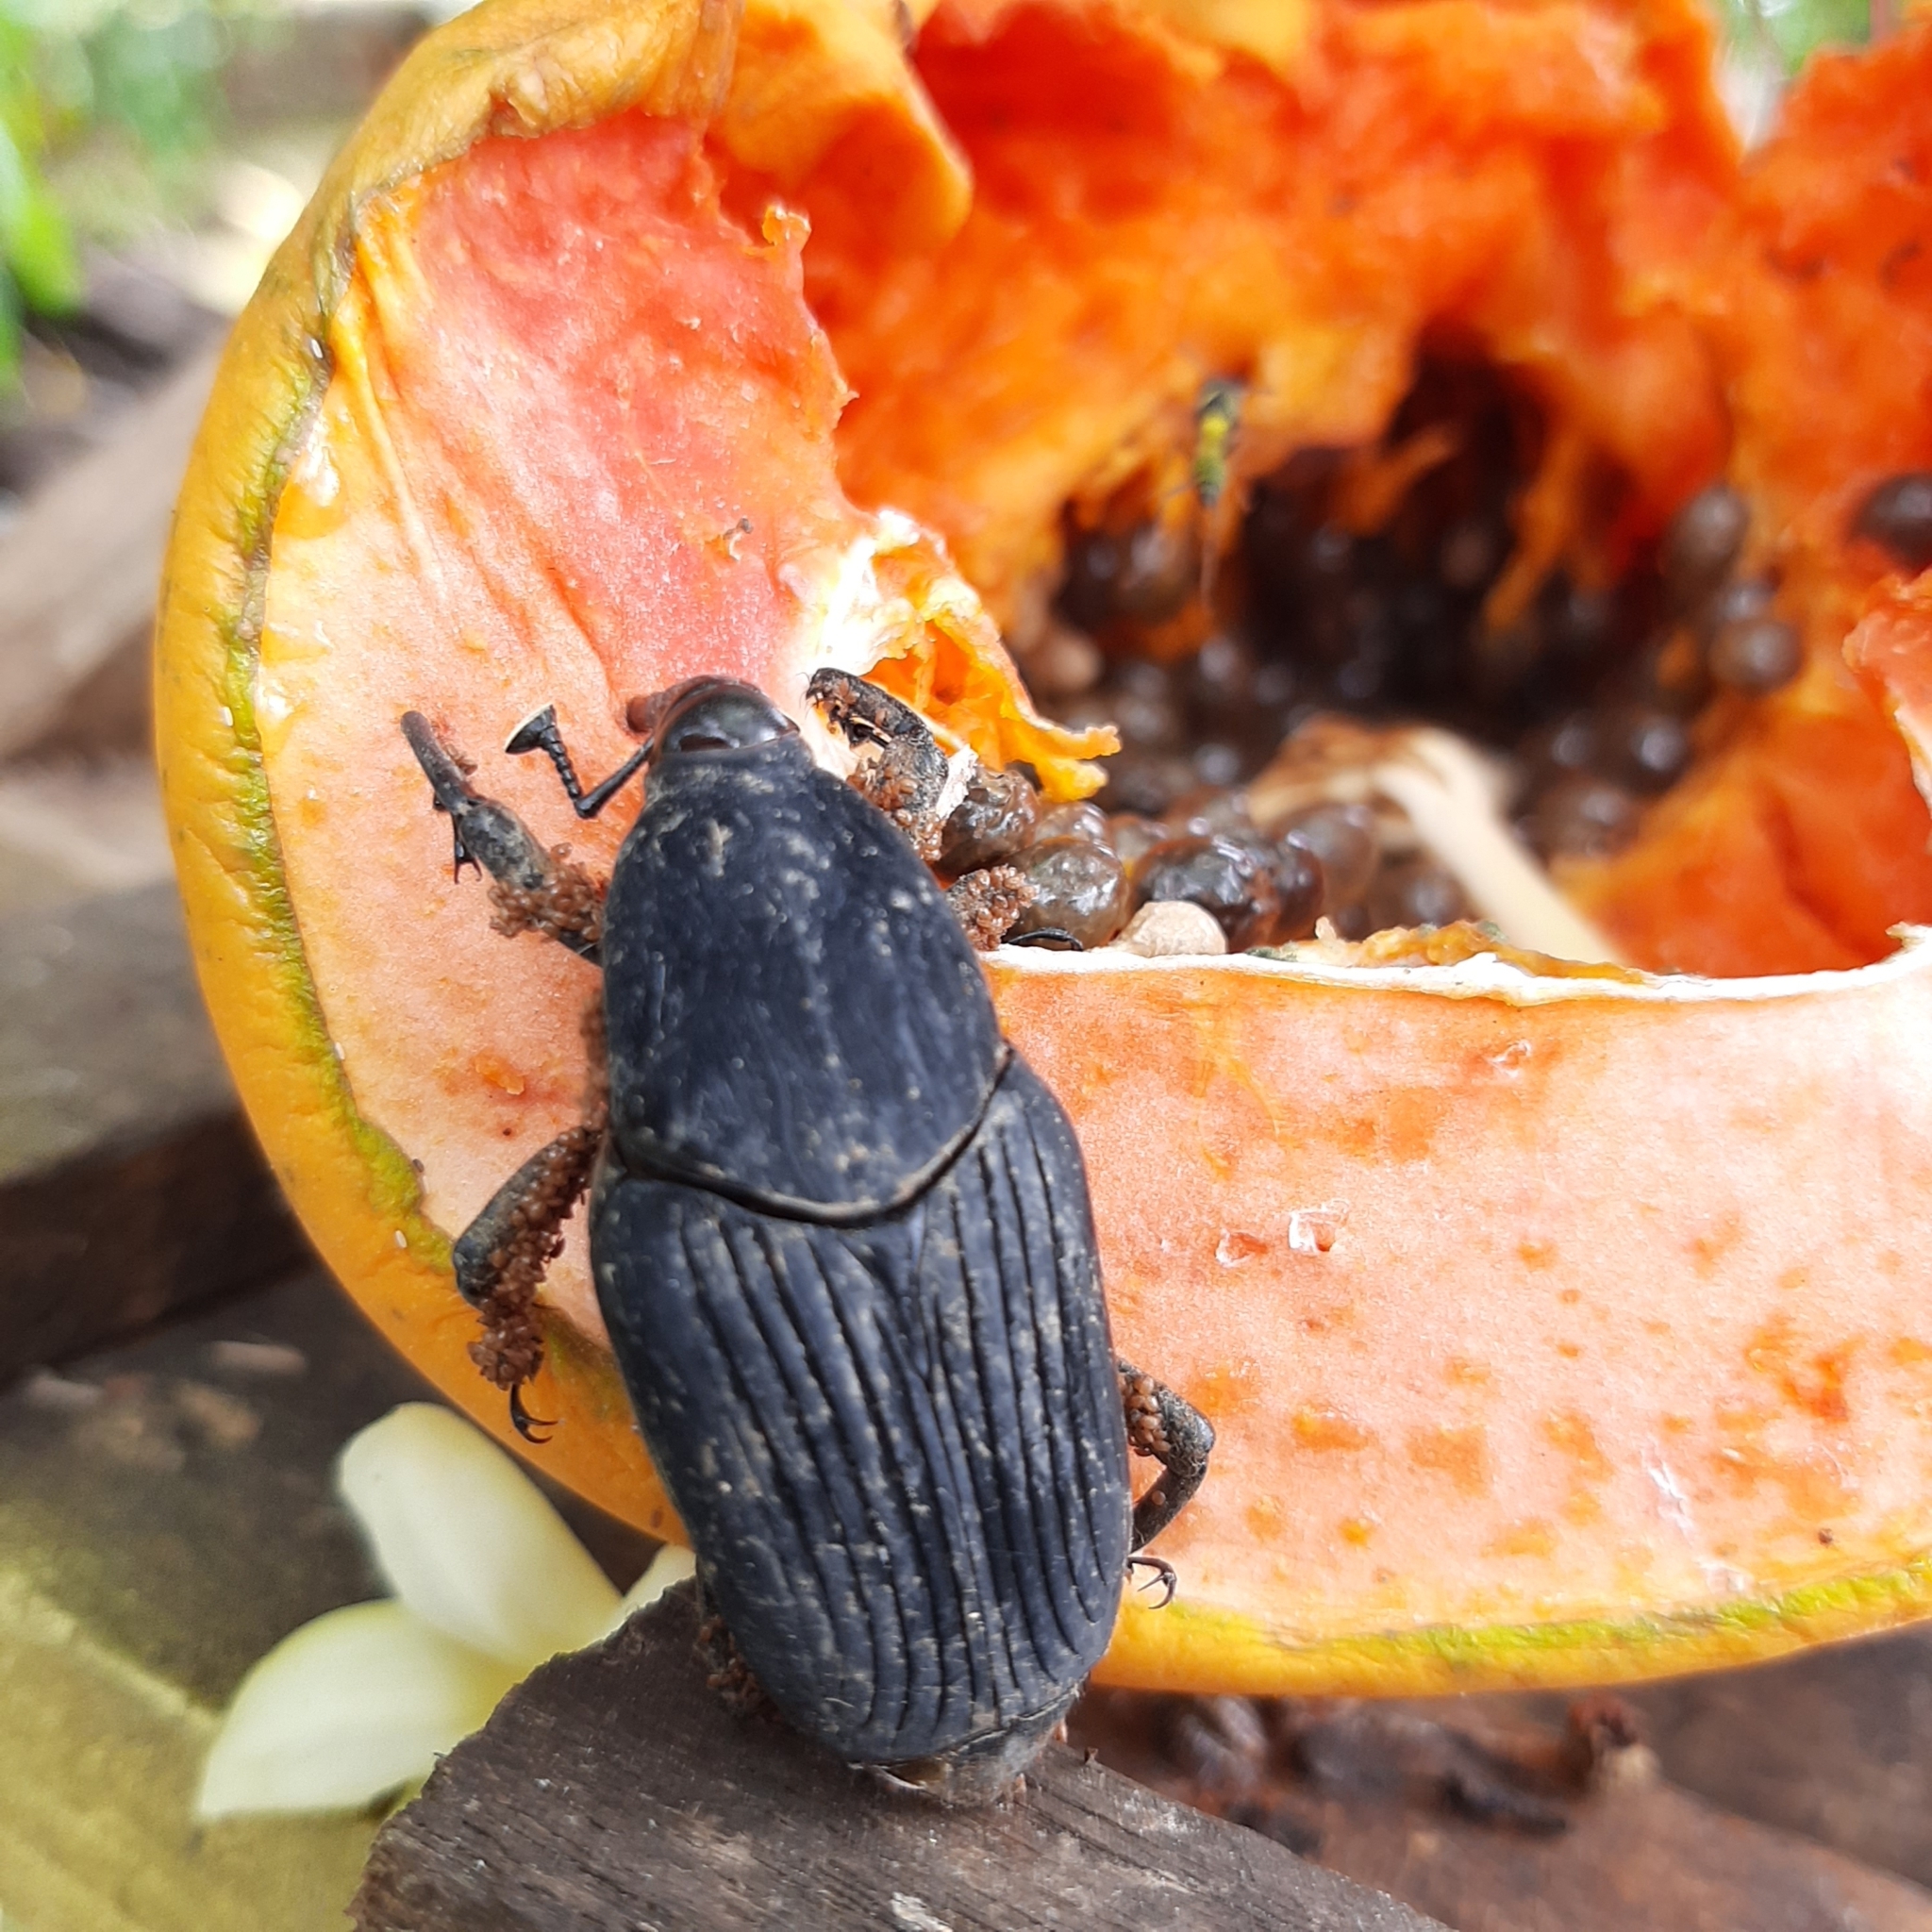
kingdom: Animalia
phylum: Arthropoda
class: Insecta
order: Coleoptera
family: Dryophthoridae
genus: Rhynchophorus
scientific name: Rhynchophorus palmarum
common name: Palm weevil
